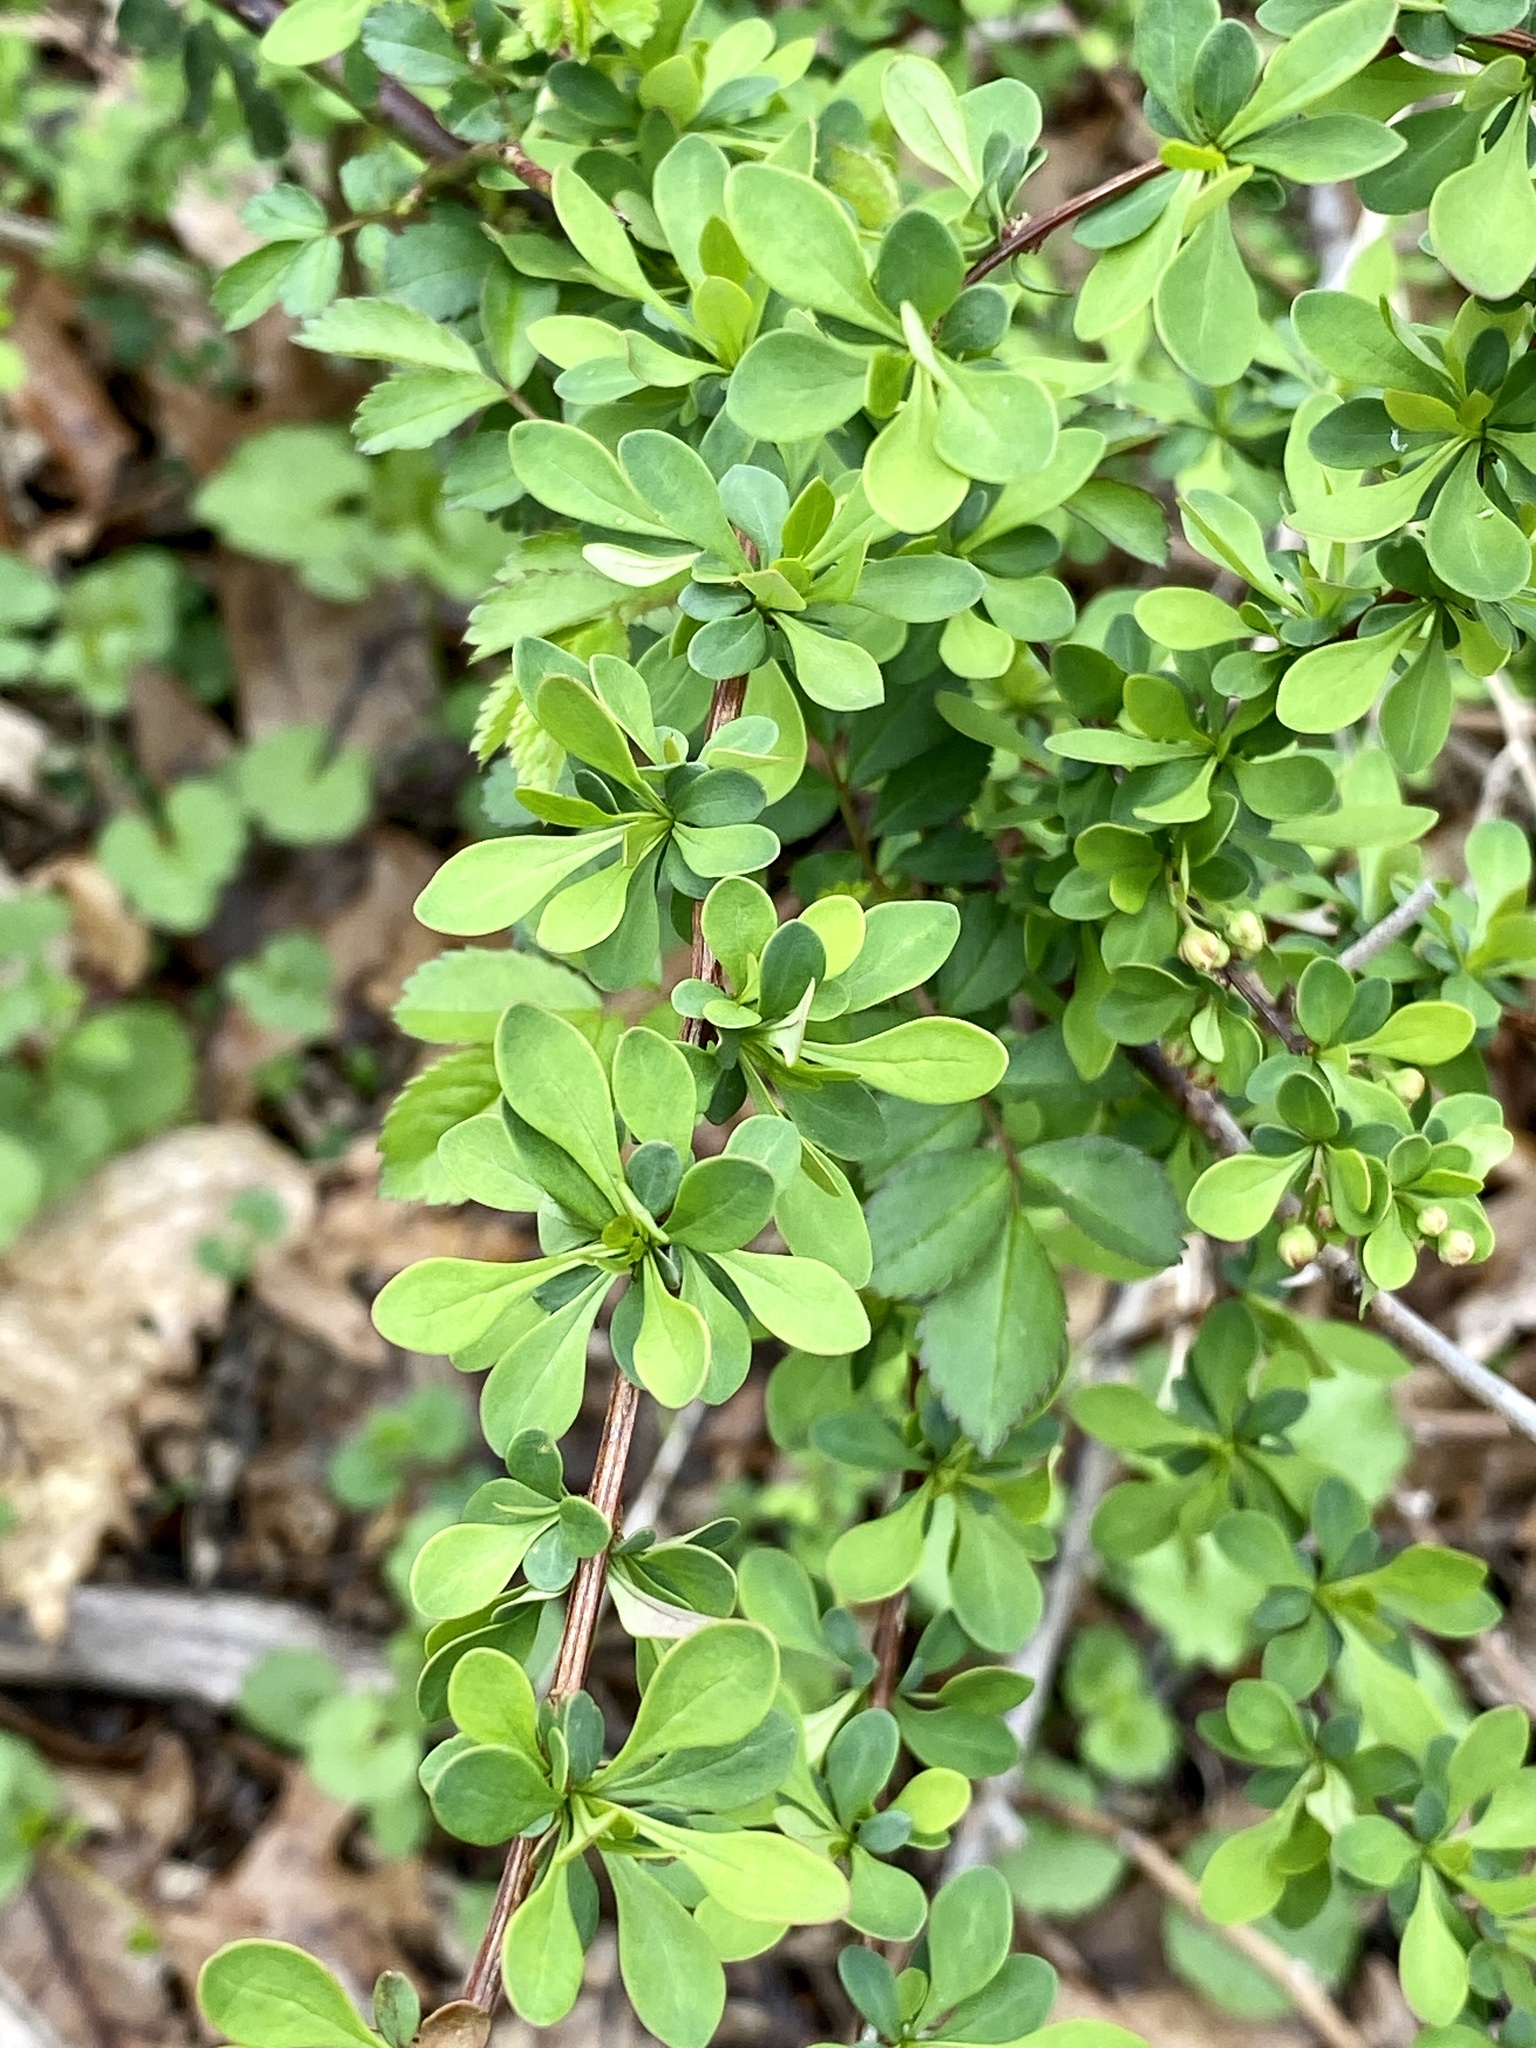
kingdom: Plantae
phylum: Tracheophyta
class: Magnoliopsida
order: Ranunculales
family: Berberidaceae
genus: Berberis
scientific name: Berberis thunbergii
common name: Japanese barberry
